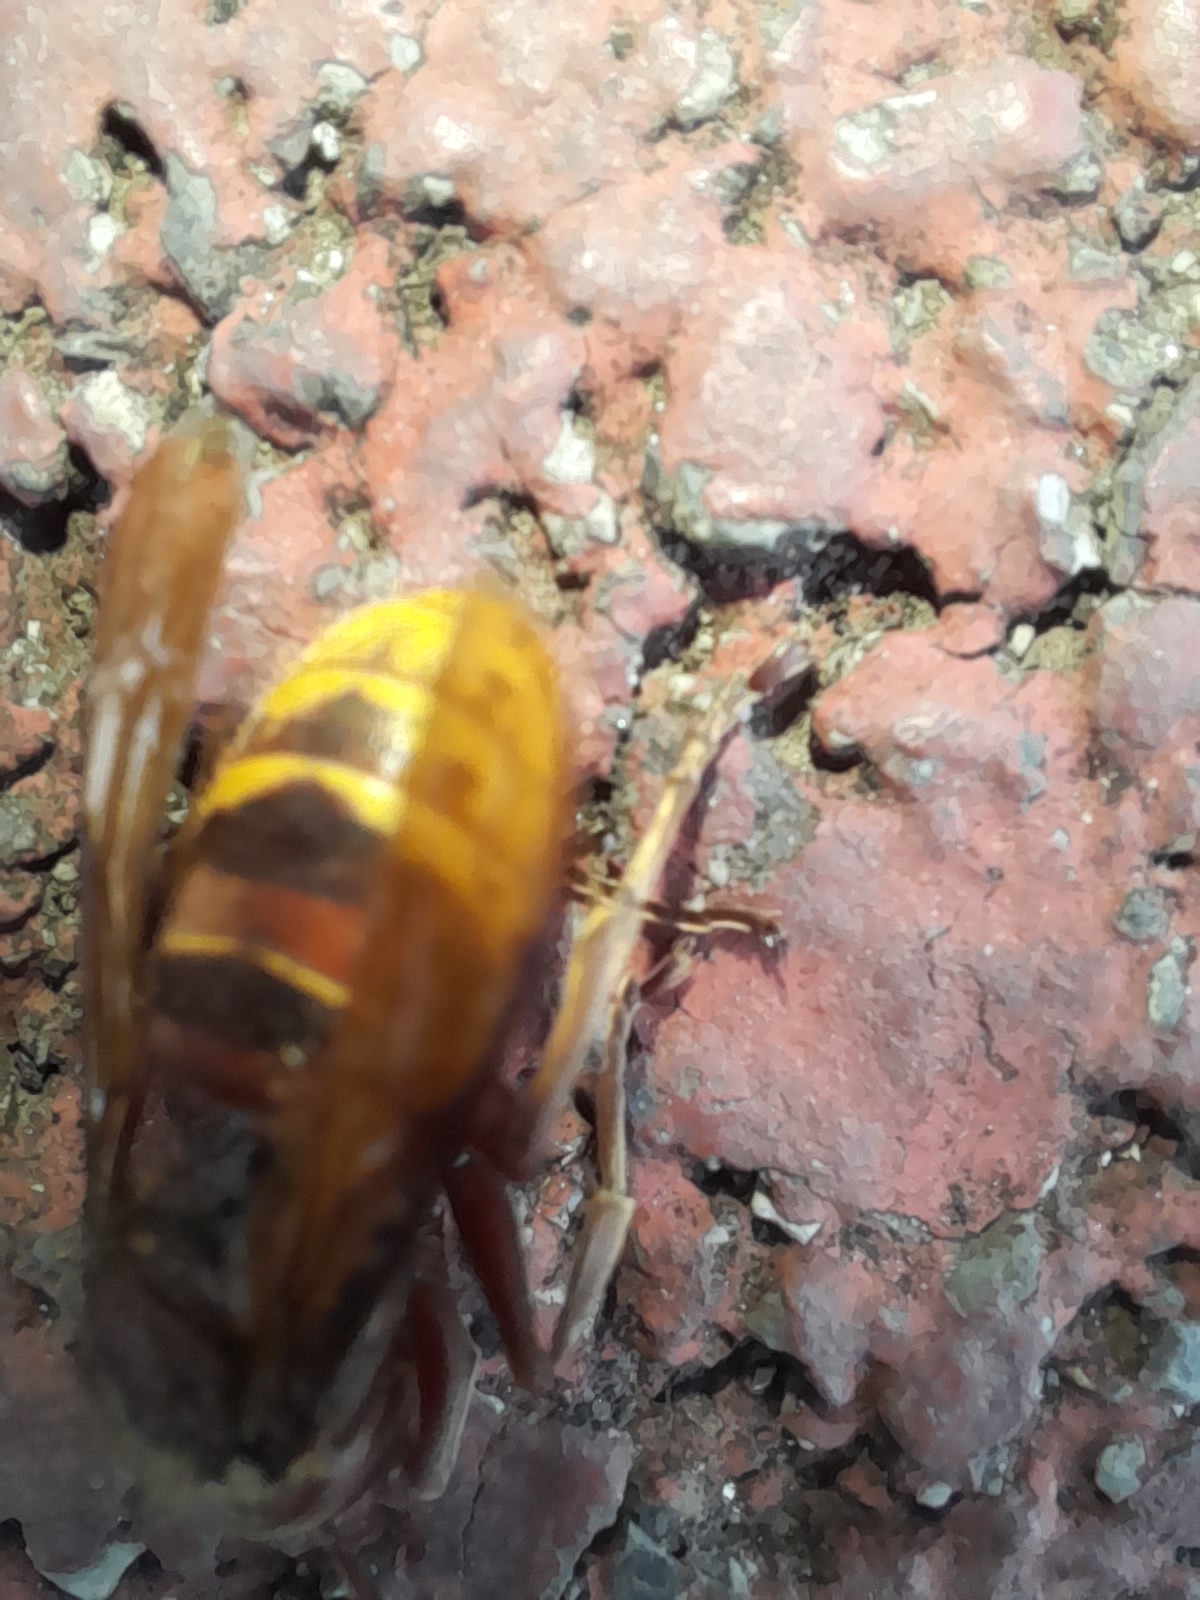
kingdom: Animalia
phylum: Arthropoda
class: Insecta
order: Hymenoptera
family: Vespidae
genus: Vespa
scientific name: Vespa crabro
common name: Hornet
